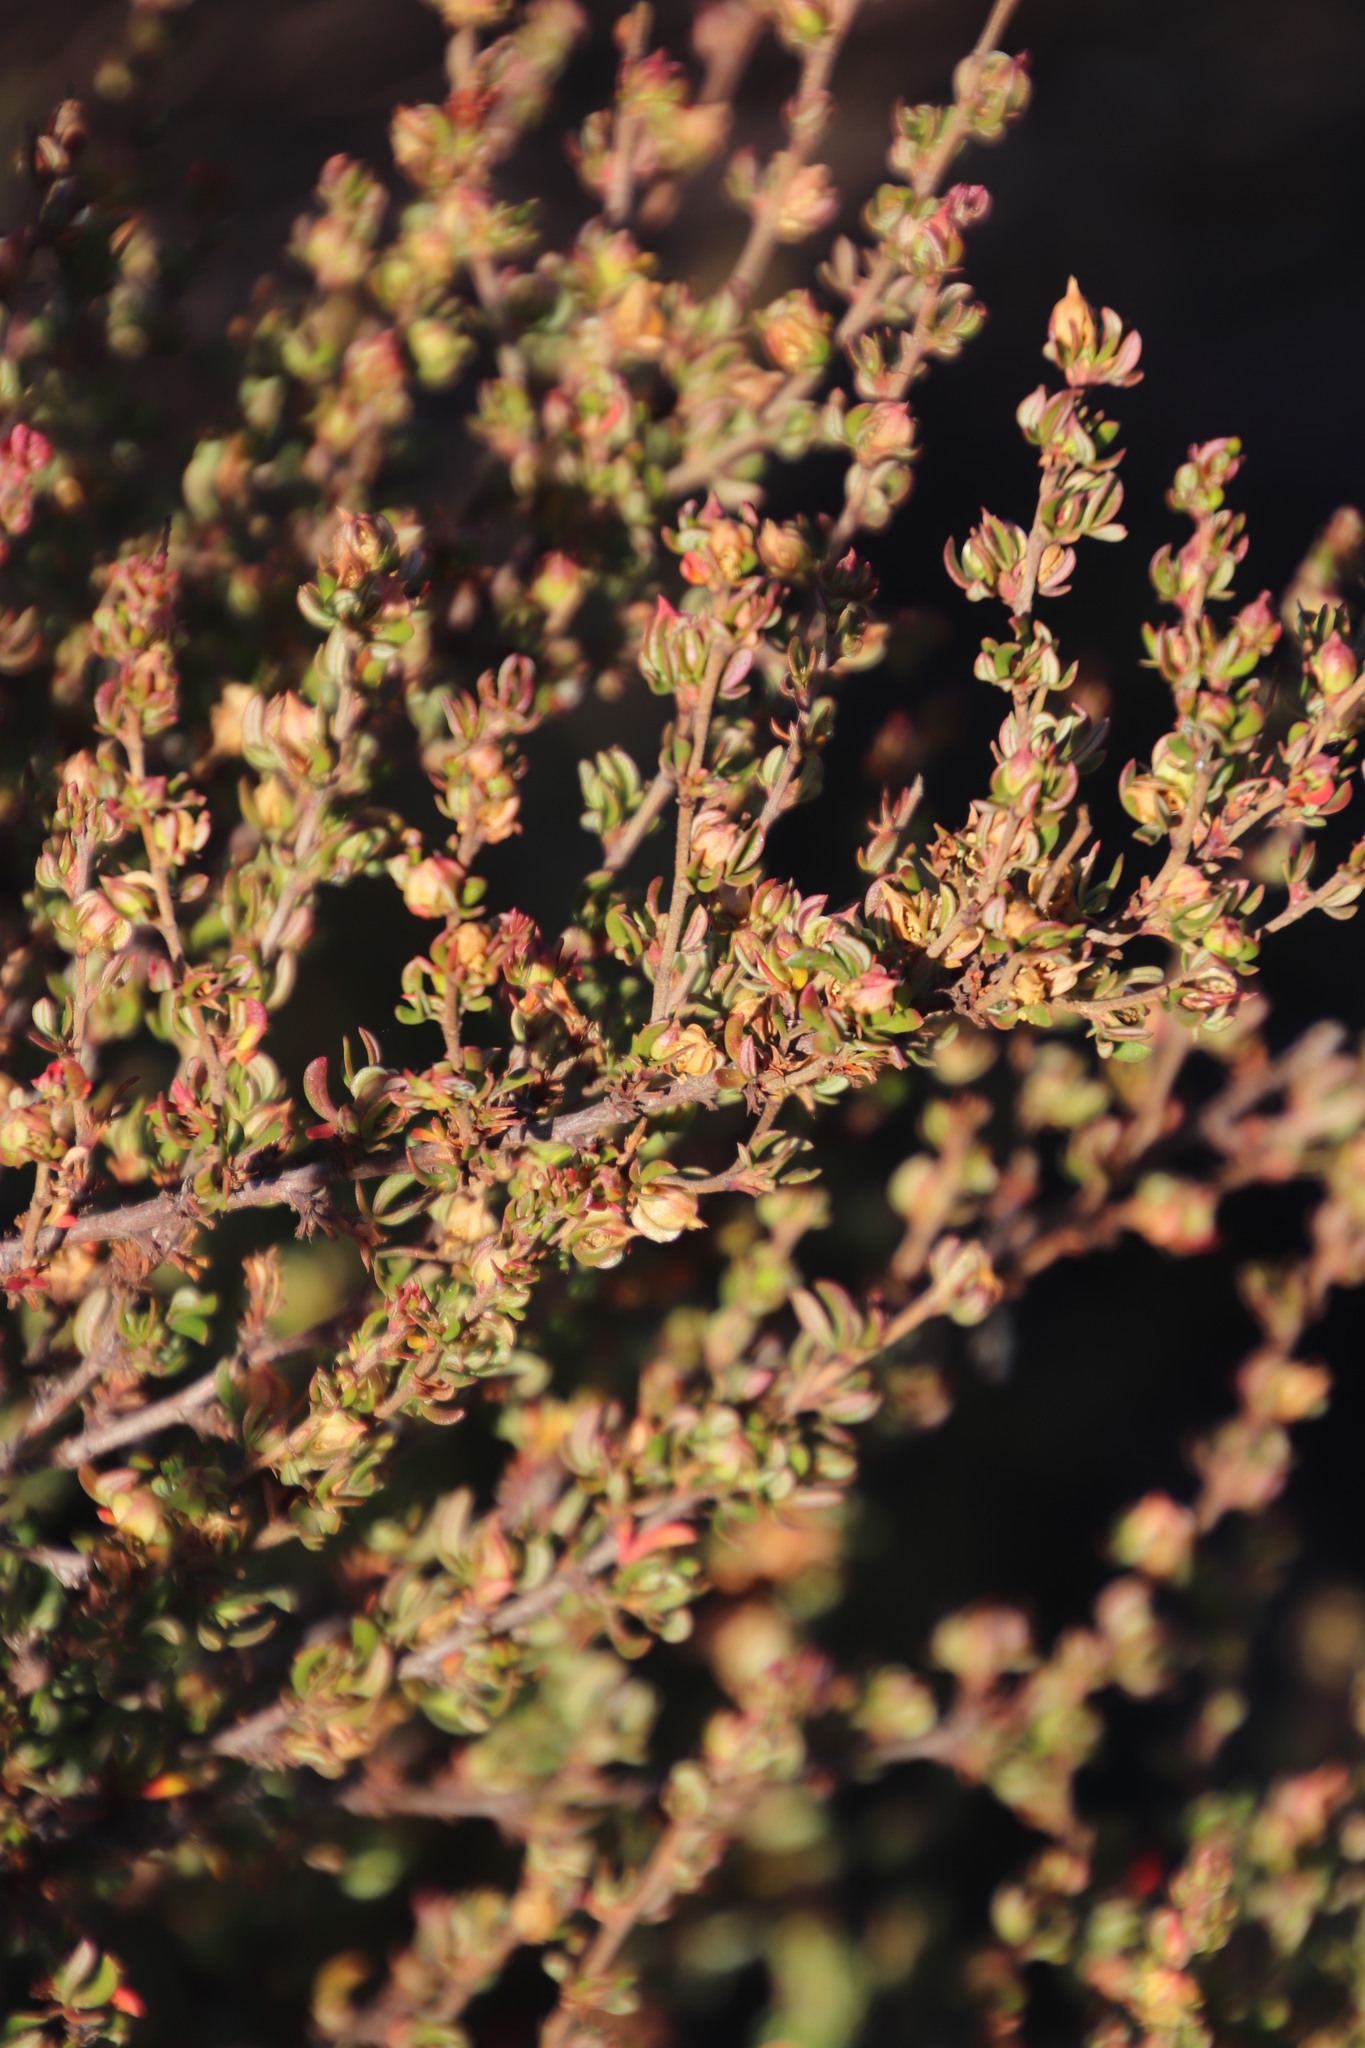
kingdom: Plantae
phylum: Tracheophyta
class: Magnoliopsida
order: Rosales
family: Rosaceae
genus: Cliffortia
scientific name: Cliffortia falcata
